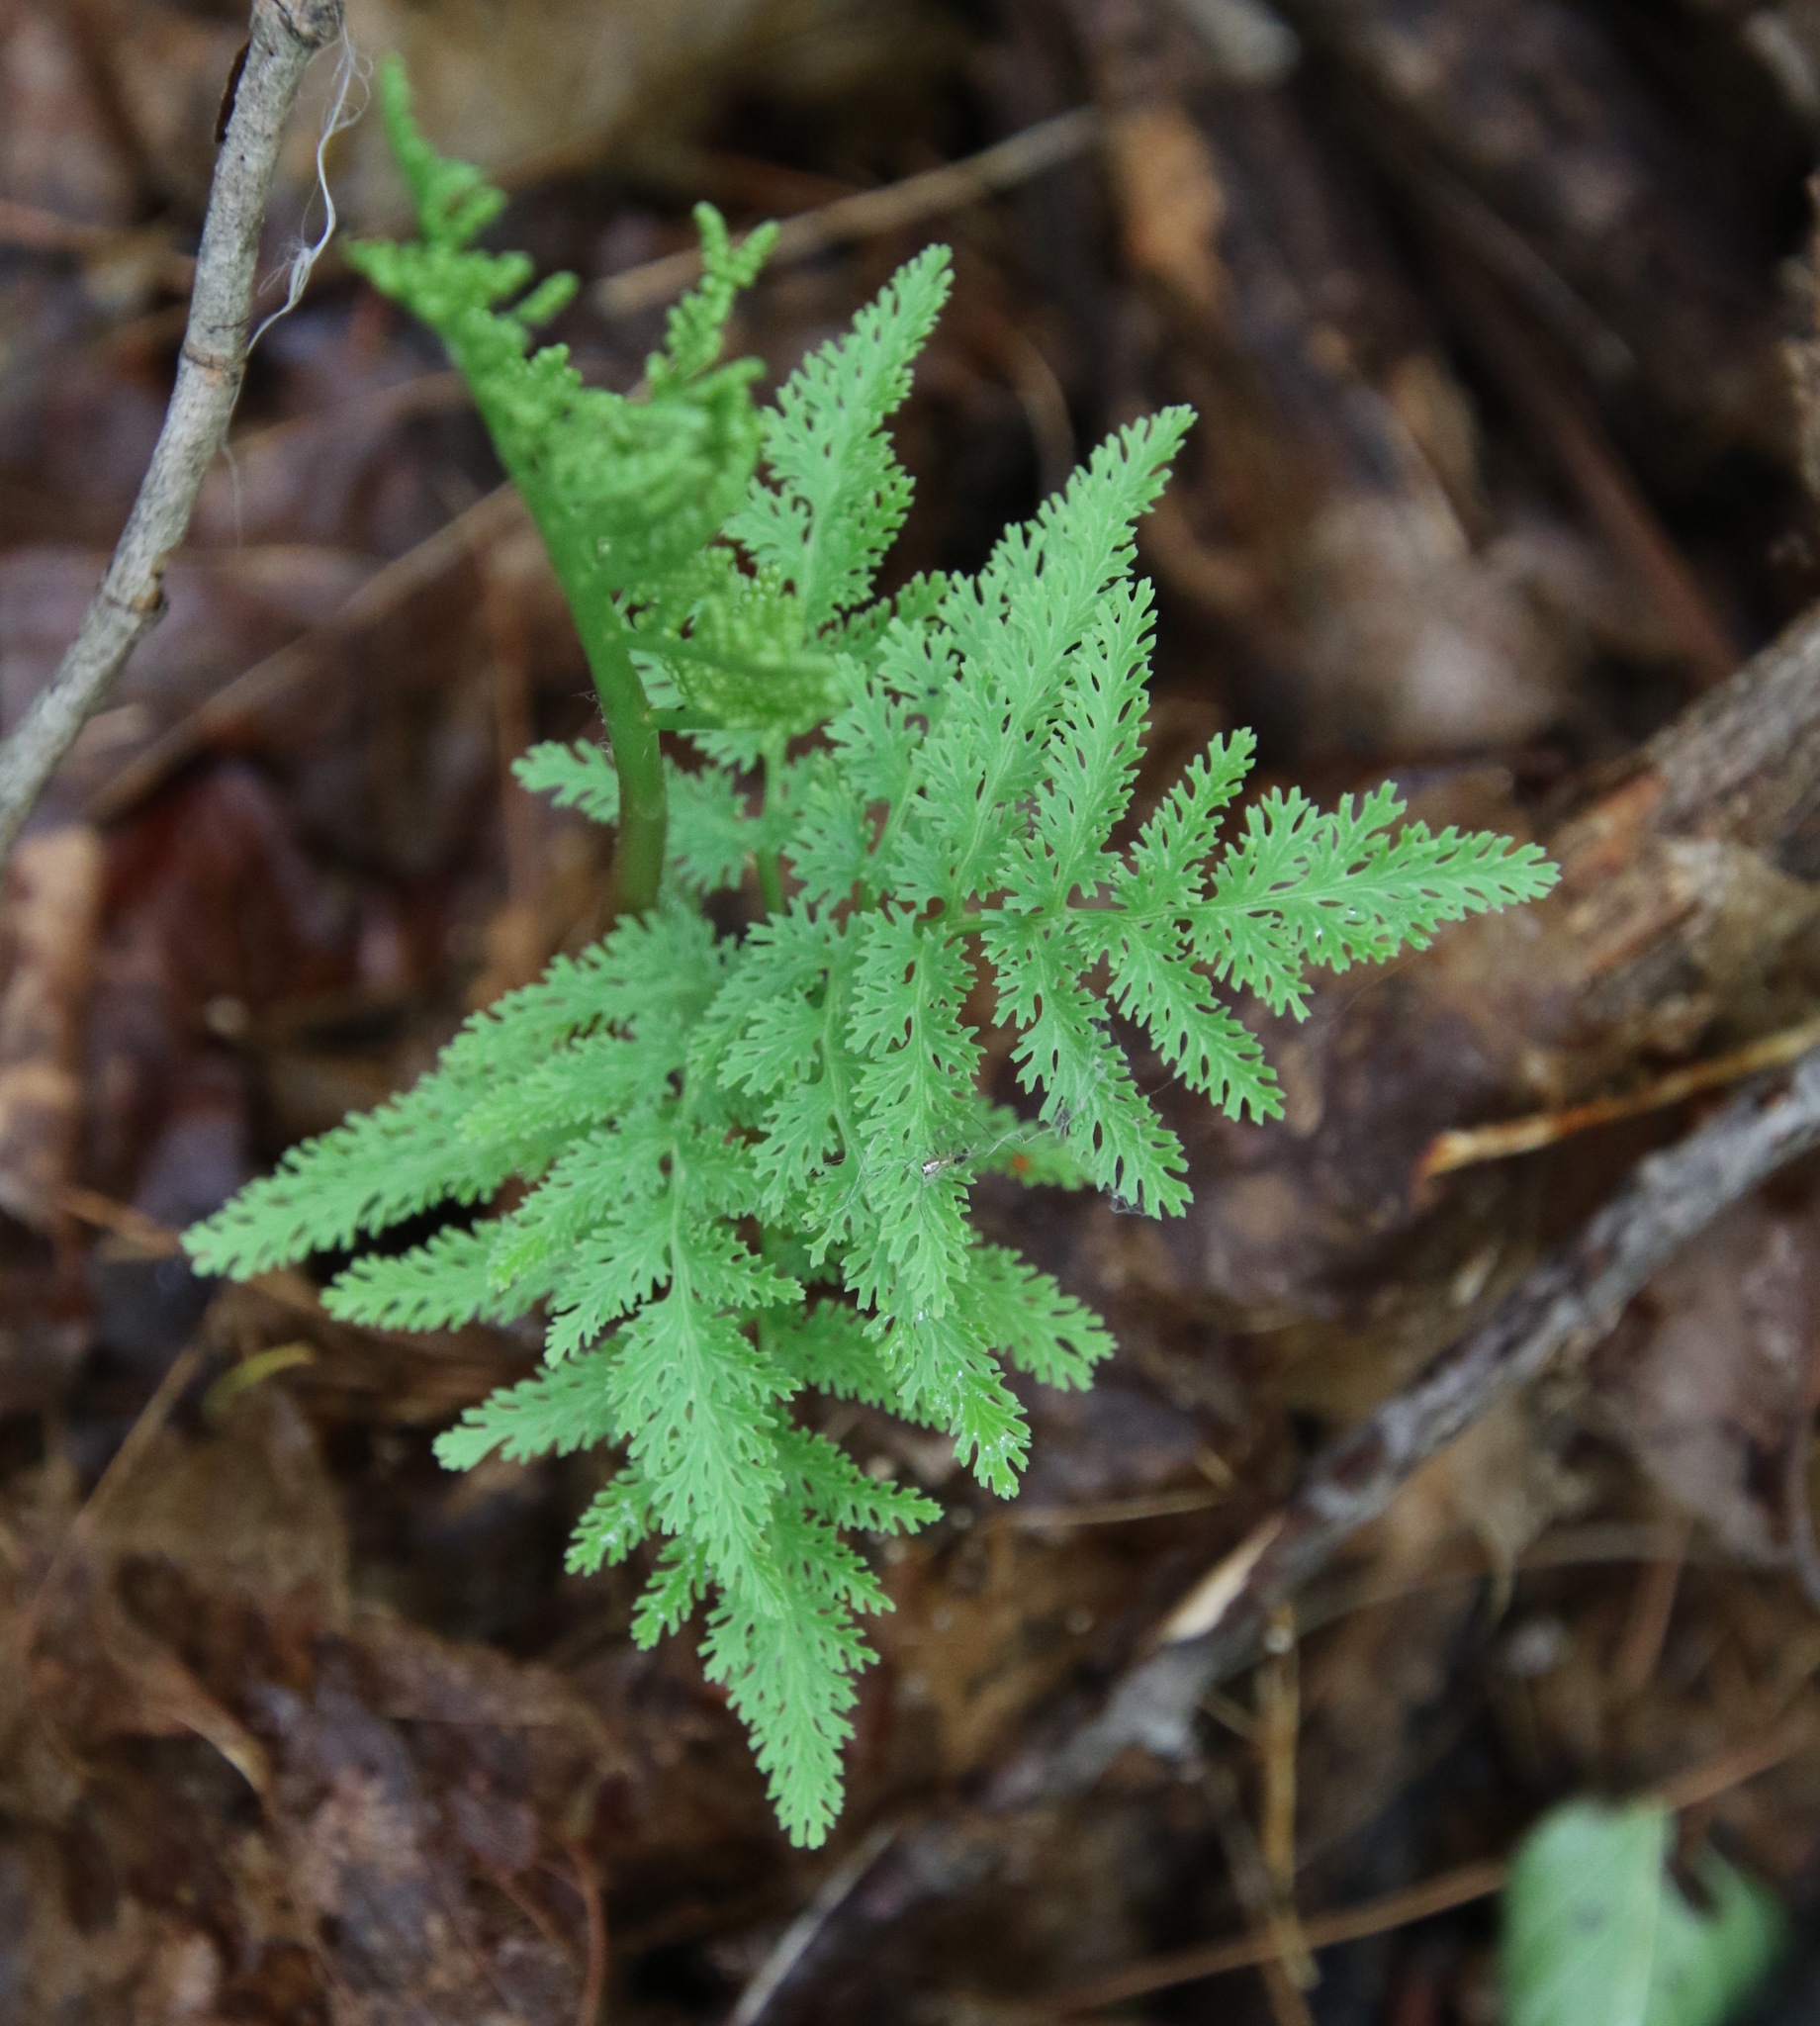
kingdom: Plantae
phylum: Tracheophyta
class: Polypodiopsida
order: Ophioglossales
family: Ophioglossaceae
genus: Sceptridium
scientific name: Sceptridium dissectum
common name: Cut-leaved grapefern
